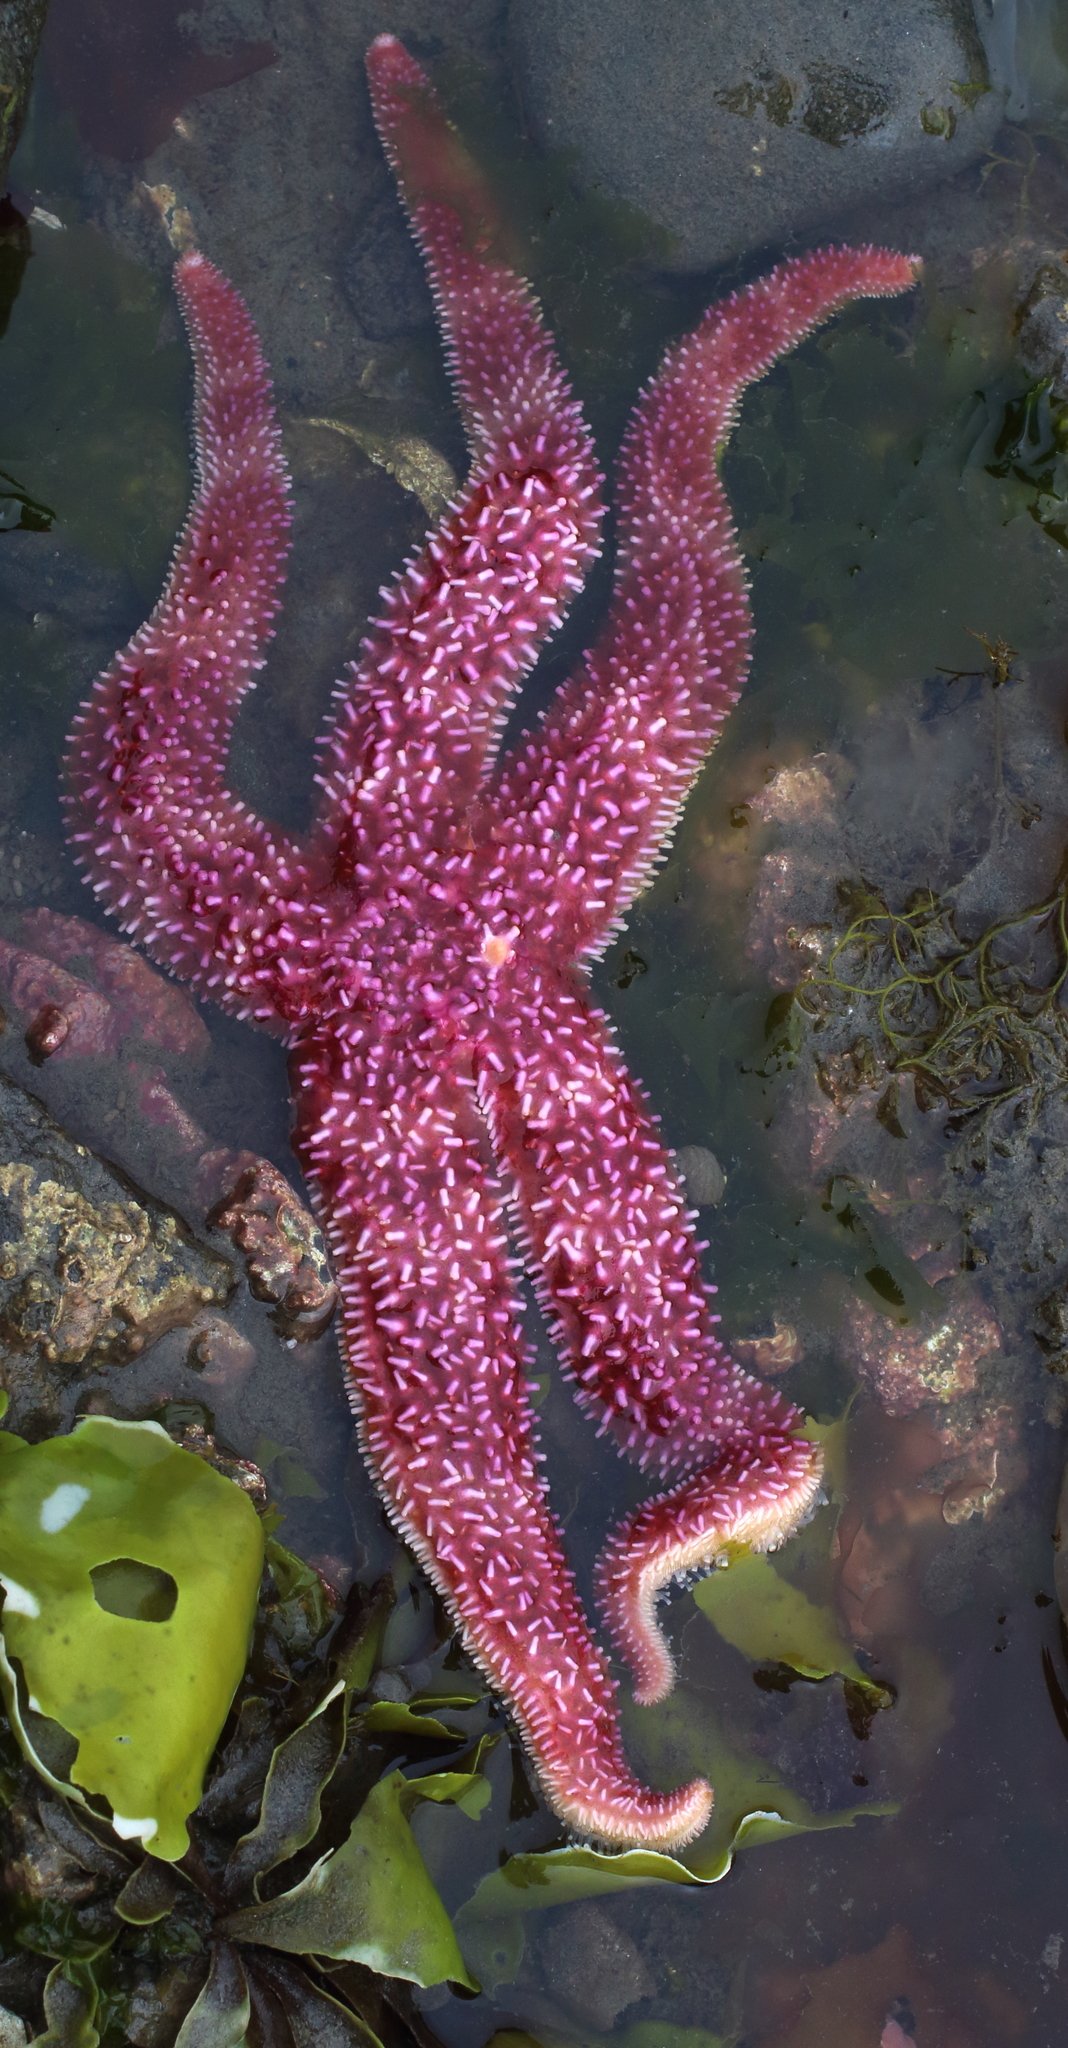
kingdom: Animalia
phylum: Echinodermata
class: Asteroidea
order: Forcipulatida
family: Asteriidae
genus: Orthasterias
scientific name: Orthasterias koehleri
